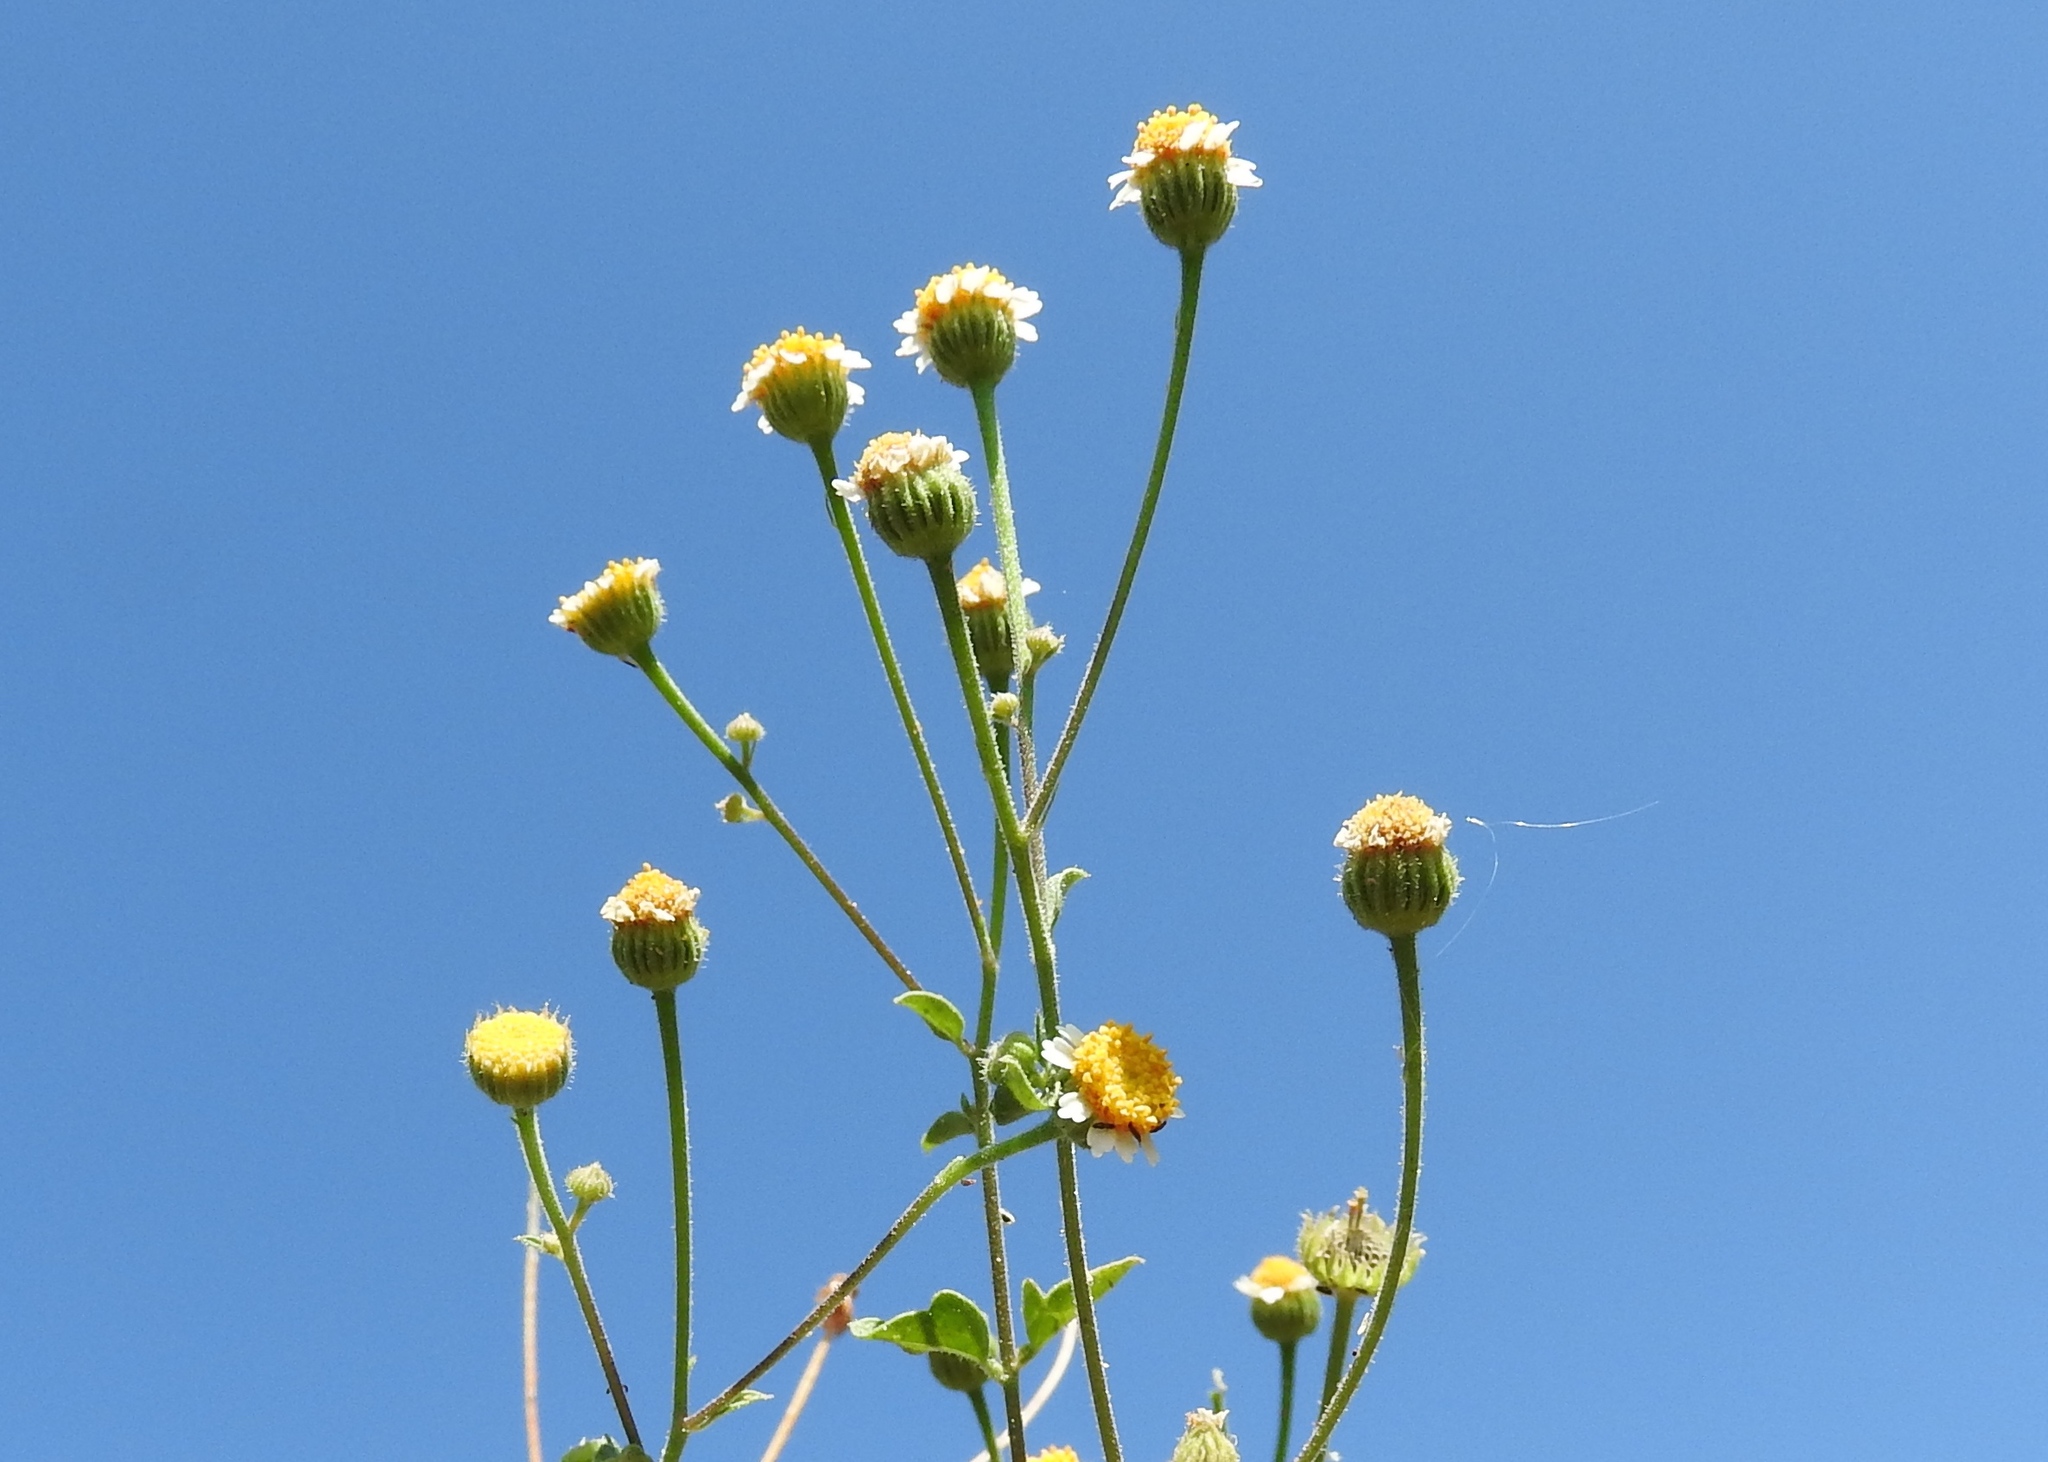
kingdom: Plantae
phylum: Tracheophyta
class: Magnoliopsida
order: Asterales
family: Asteraceae
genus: Galinsogeopsis
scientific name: Galinsogeopsis spilanthoides
